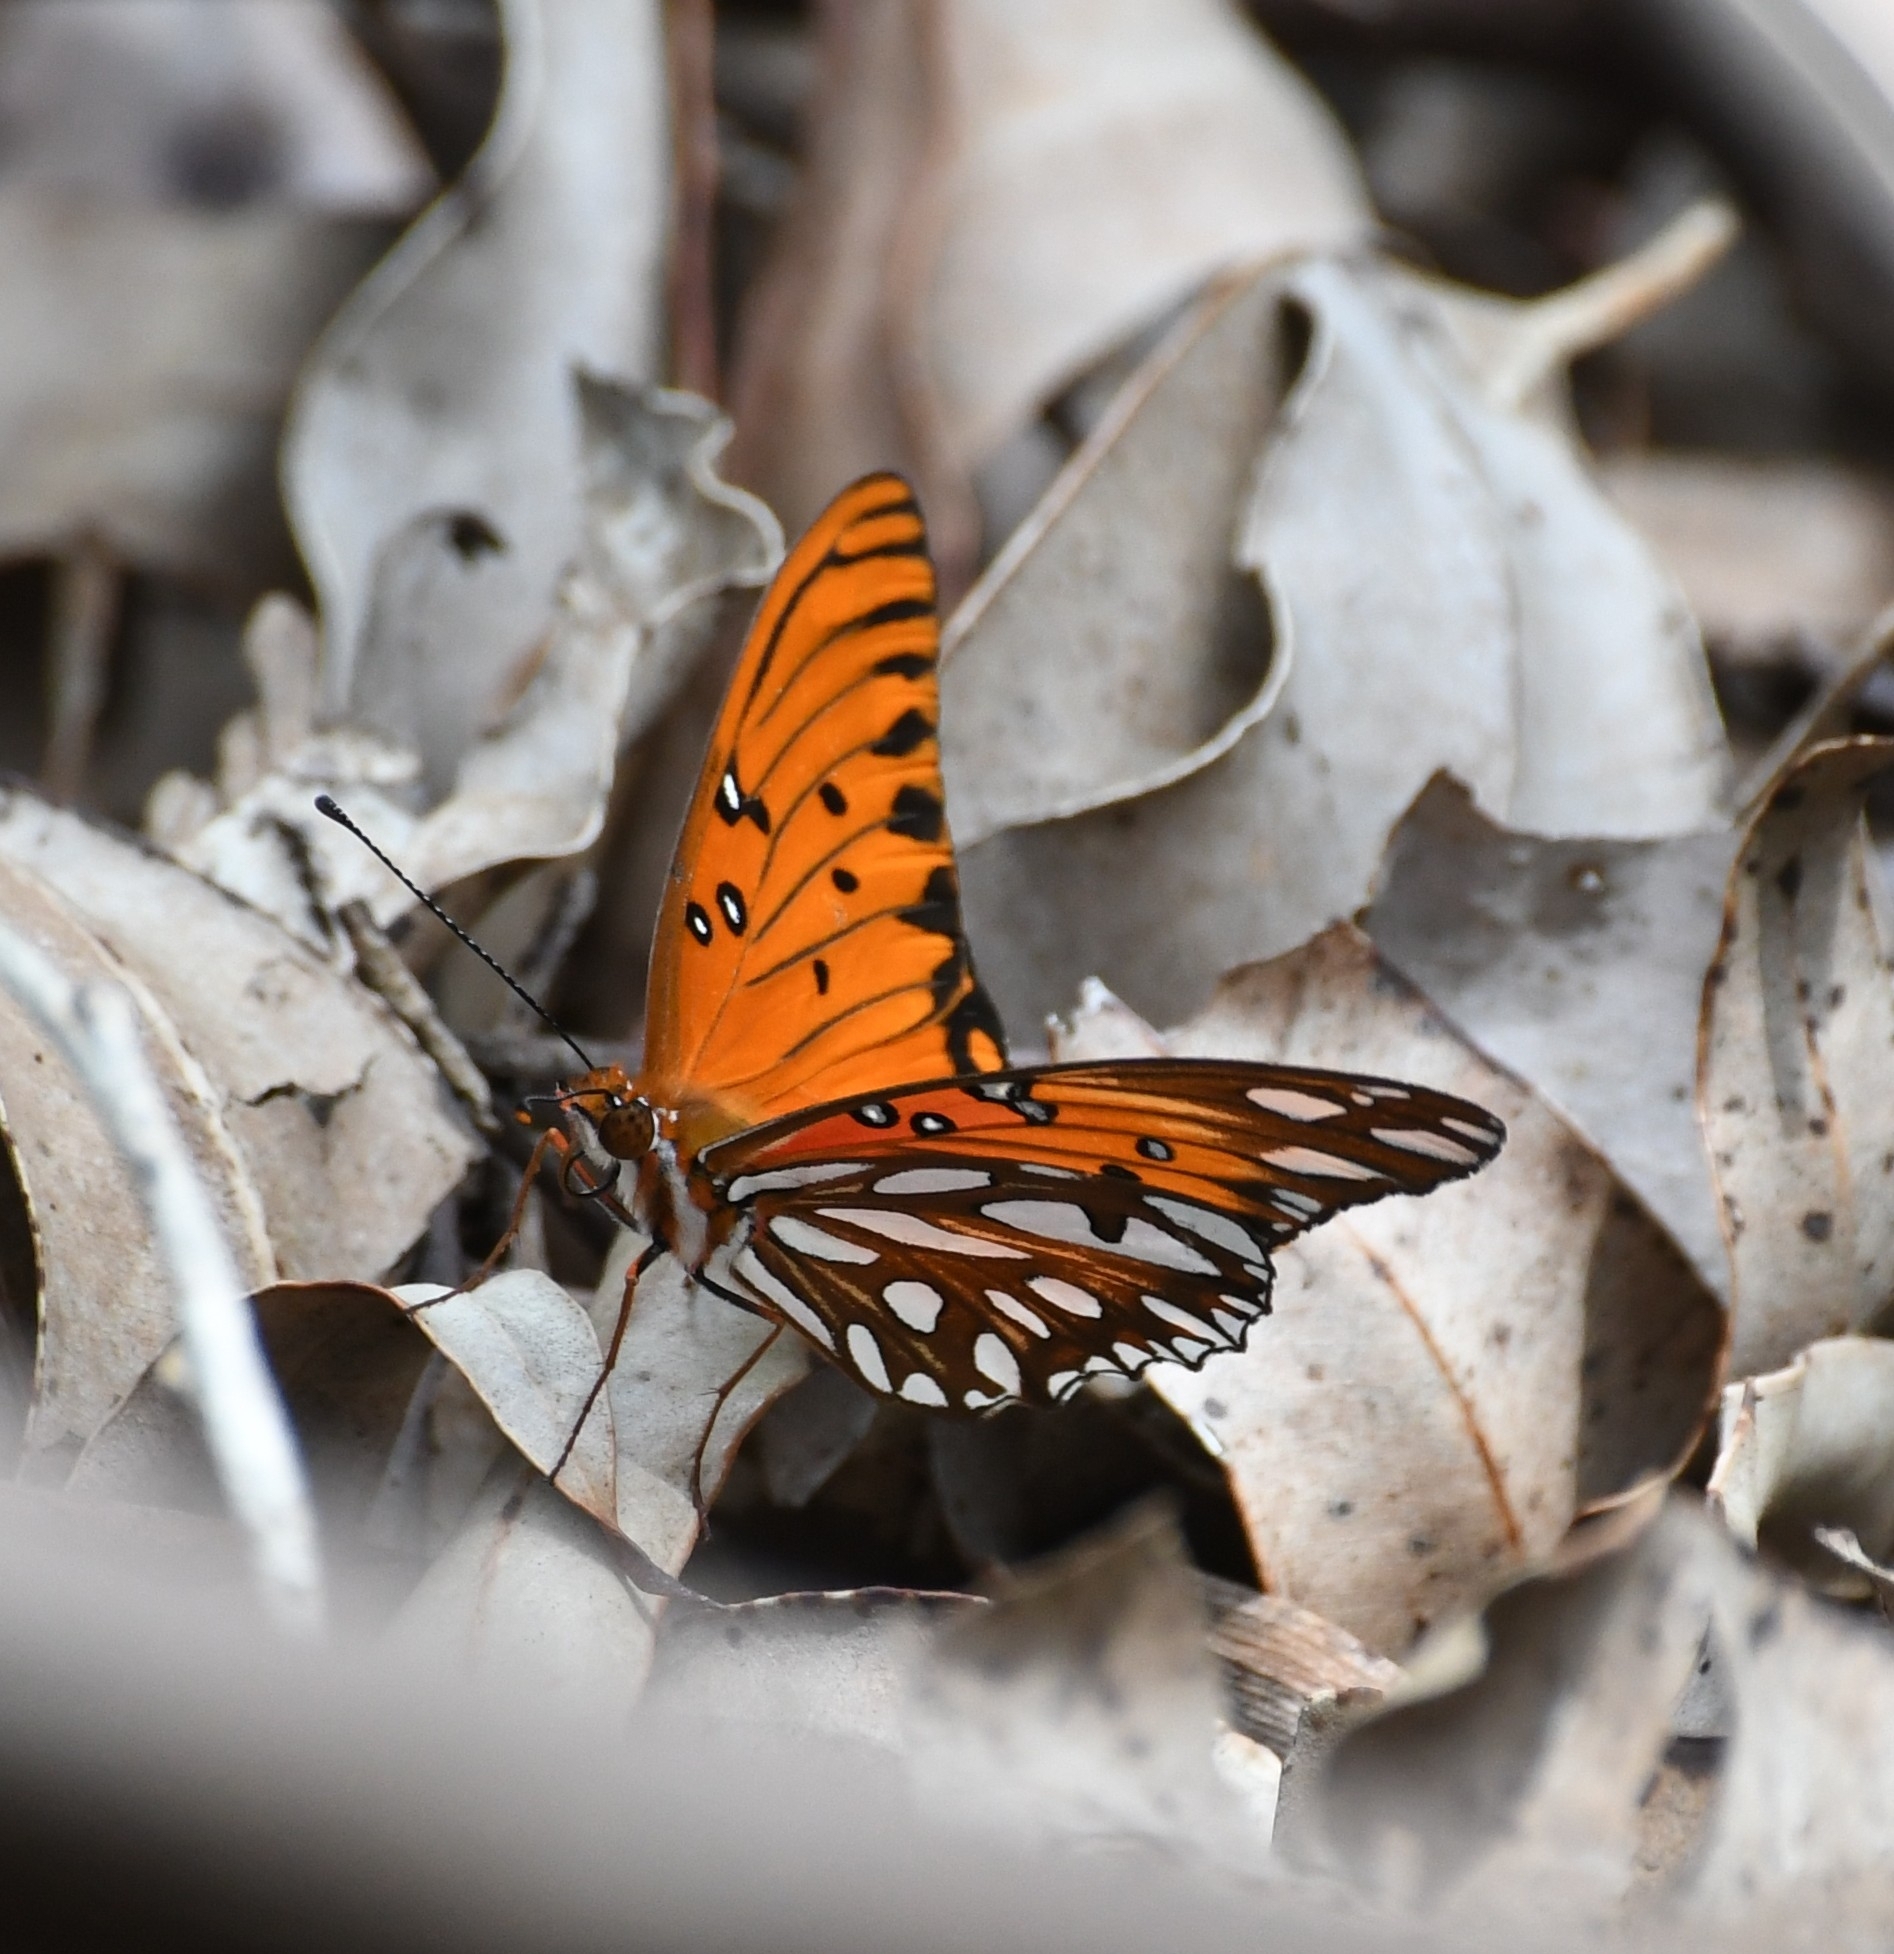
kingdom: Animalia
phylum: Arthropoda
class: Insecta
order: Lepidoptera
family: Nymphalidae
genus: Dione
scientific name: Dione vanillae
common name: Gulf fritillary
